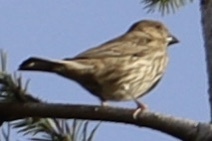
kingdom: Animalia
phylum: Chordata
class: Aves
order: Passeriformes
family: Fringillidae
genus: Haemorhous
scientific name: Haemorhous mexicanus
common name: House finch
